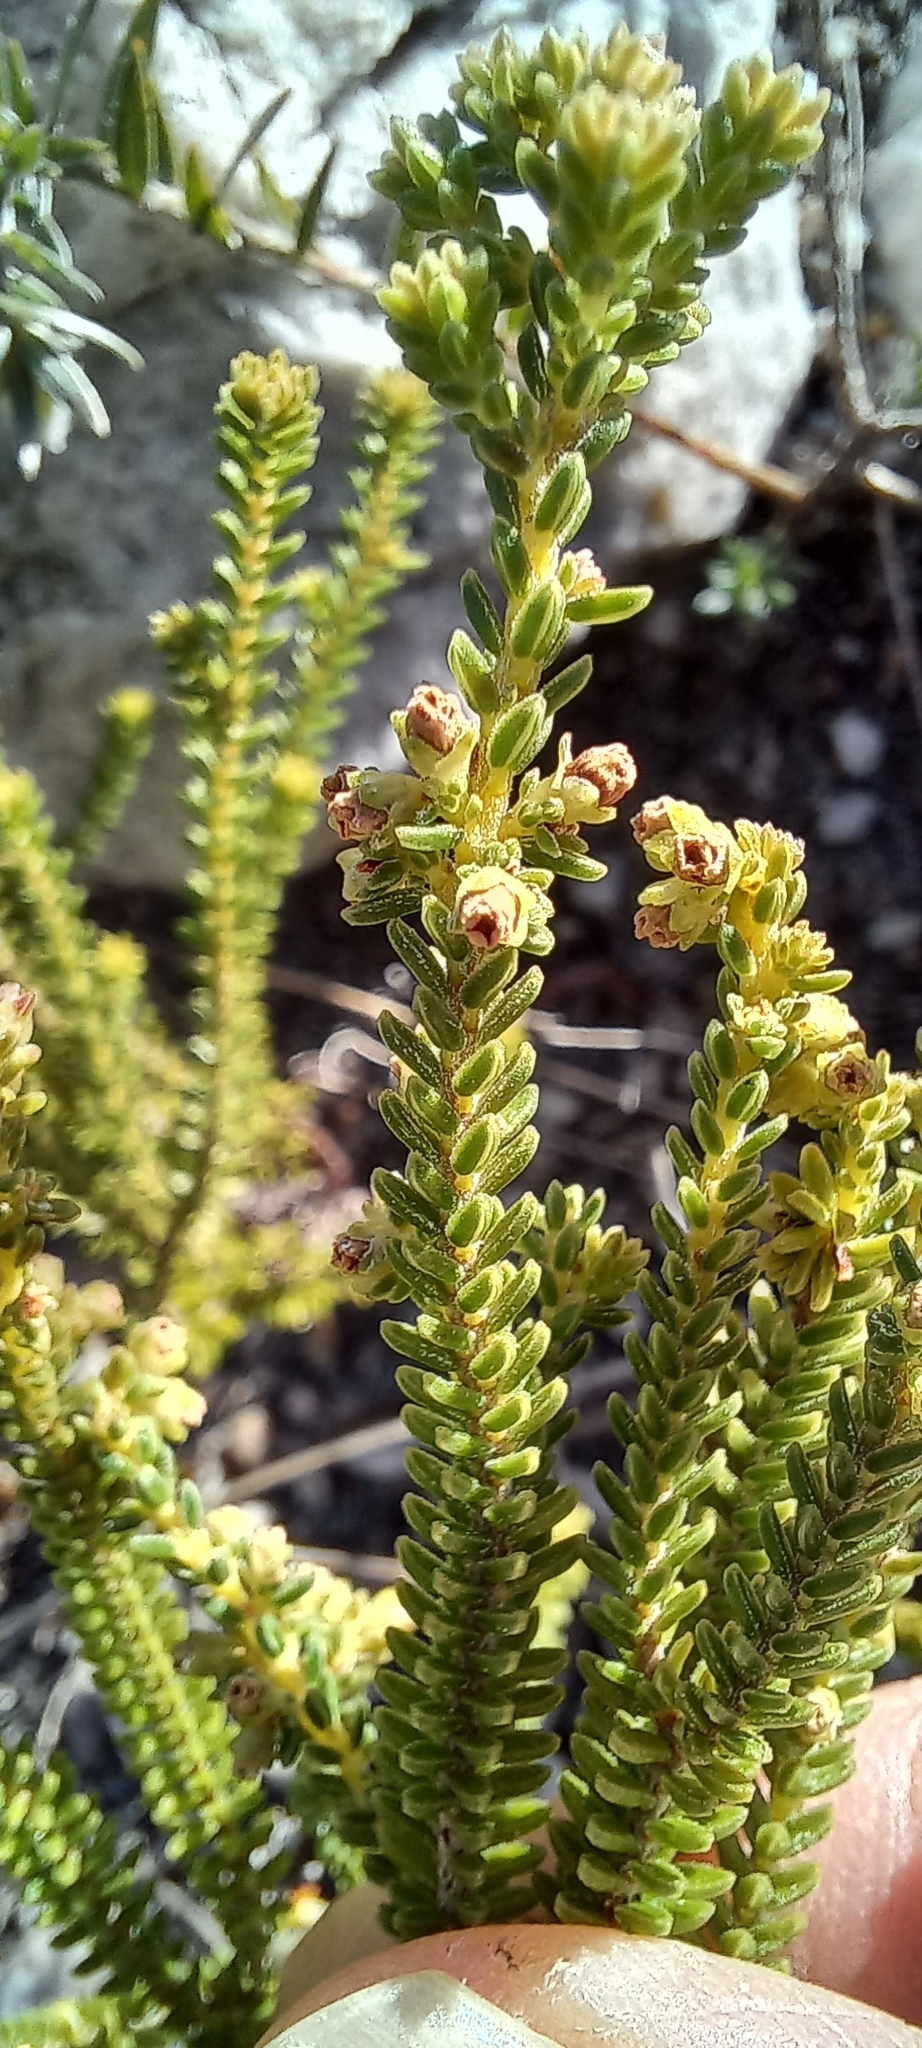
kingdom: Plantae
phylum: Tracheophyta
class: Magnoliopsida
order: Ericales
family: Ericaceae
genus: Erica
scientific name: Erica serrata
